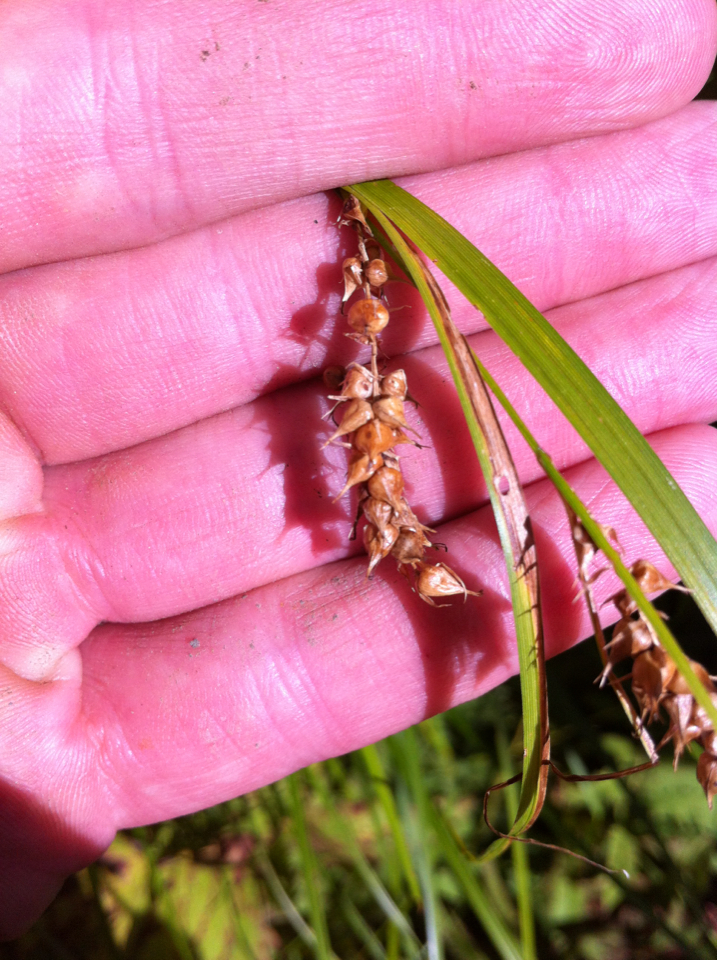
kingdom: Plantae
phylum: Tracheophyta
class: Liliopsida
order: Poales
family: Cyperaceae
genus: Carex
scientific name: Carex vesicaria
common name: Bladder-sedge
